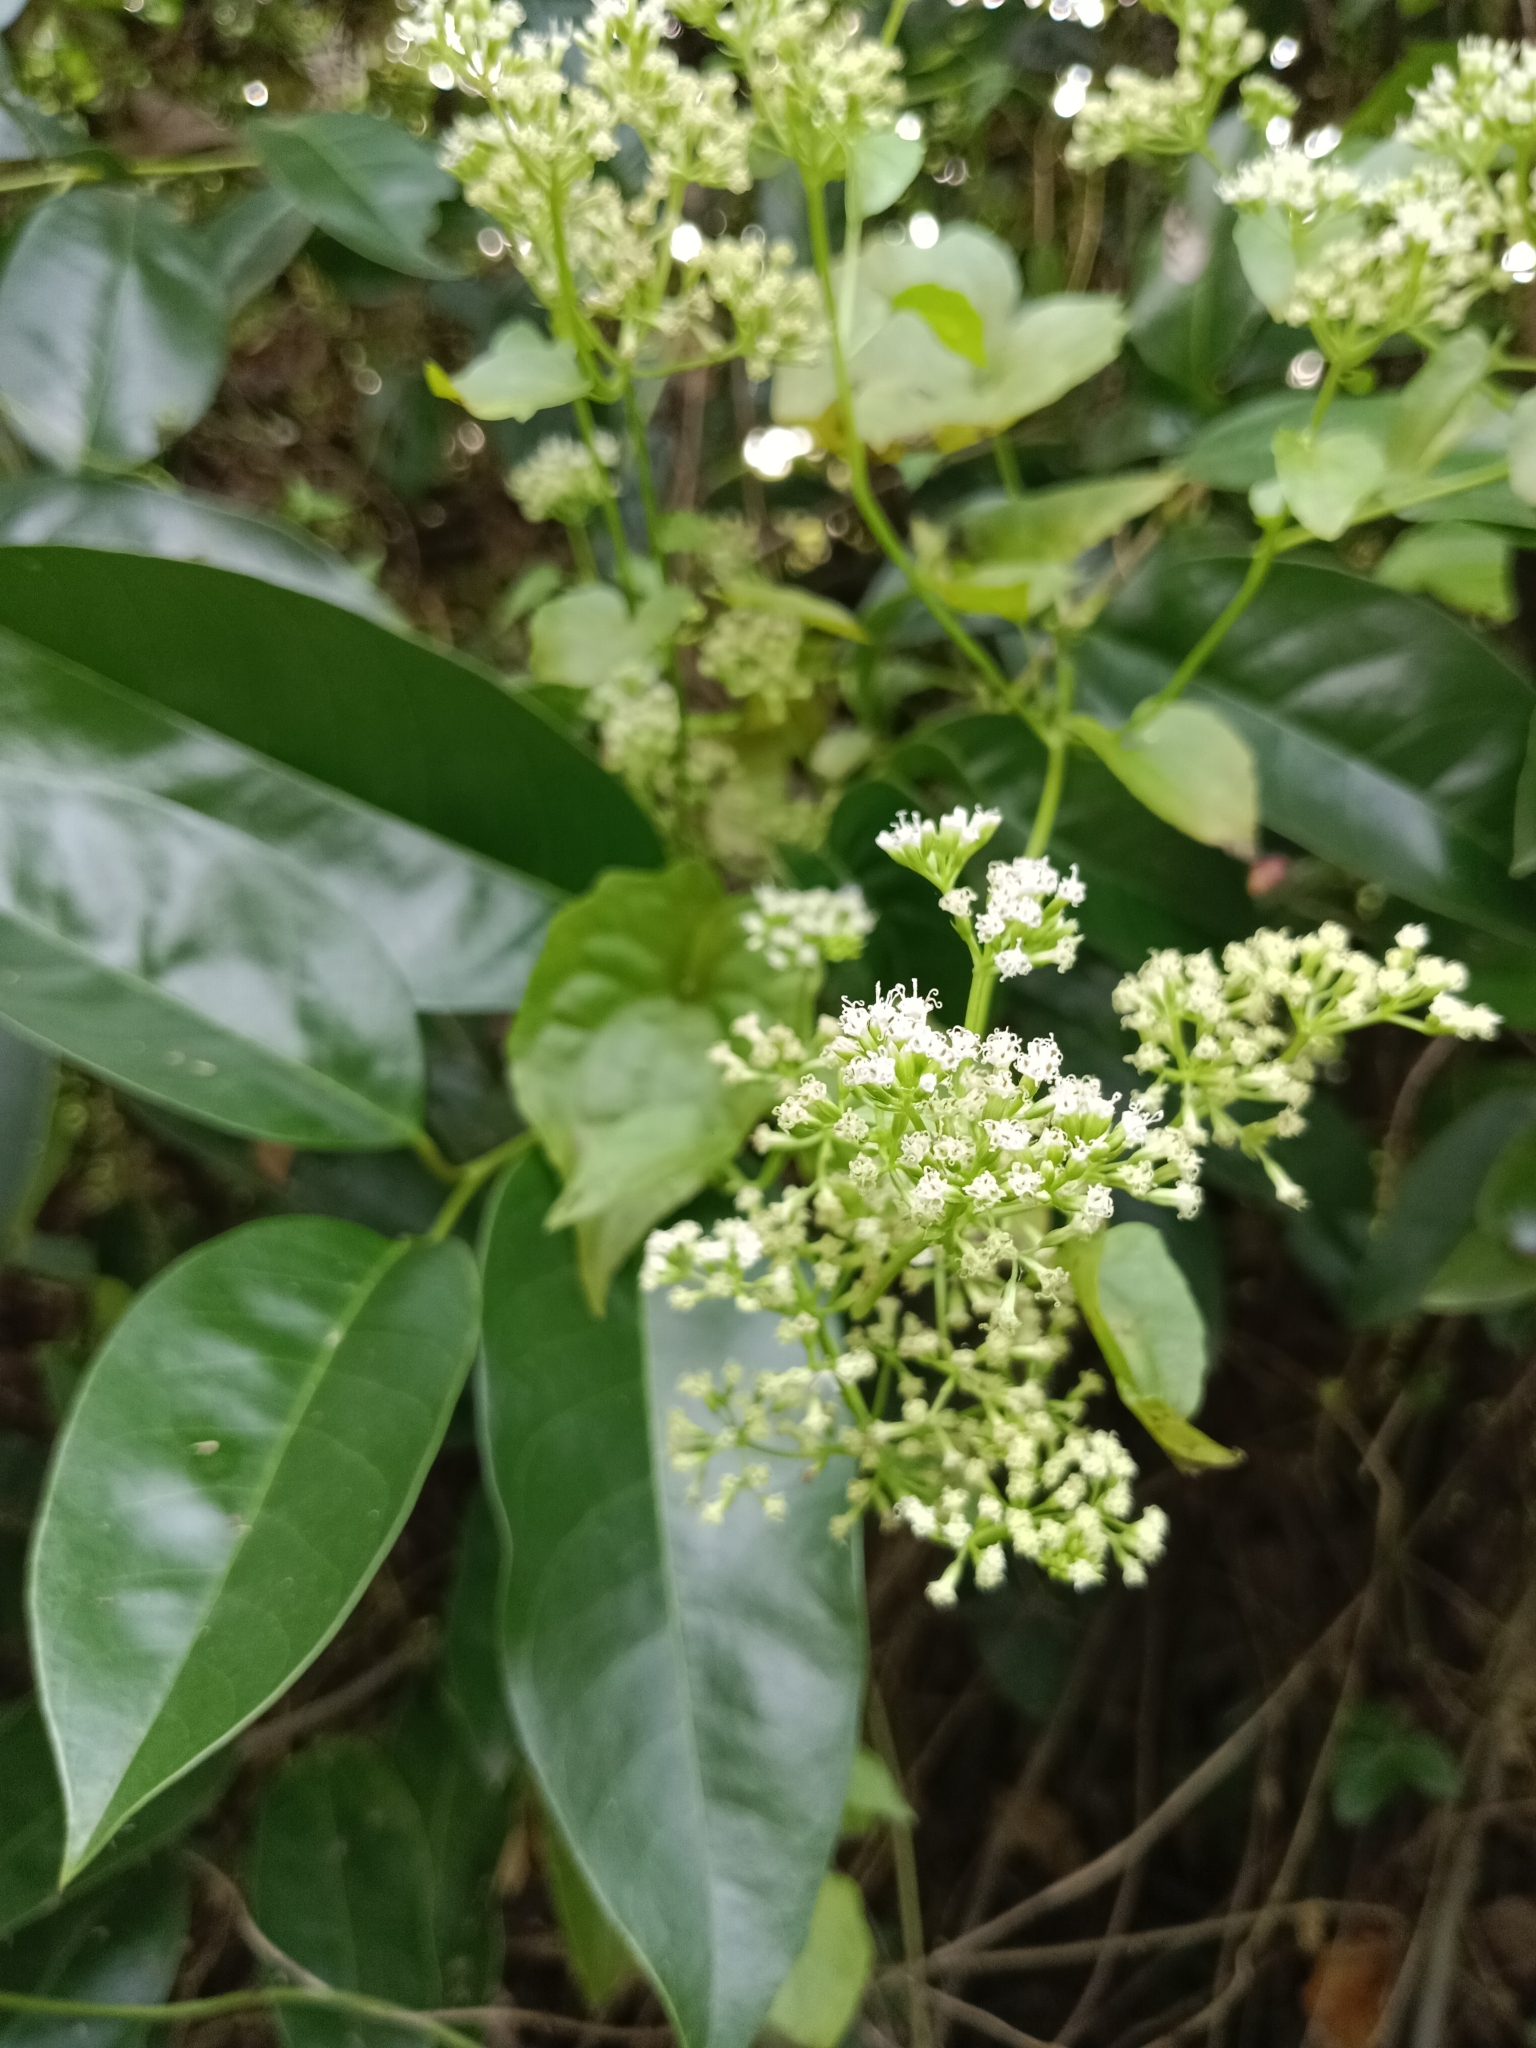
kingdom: Plantae
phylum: Tracheophyta
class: Magnoliopsida
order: Asterales
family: Asteraceae
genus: Mikania
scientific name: Mikania micrantha
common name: Mile-a-minute
